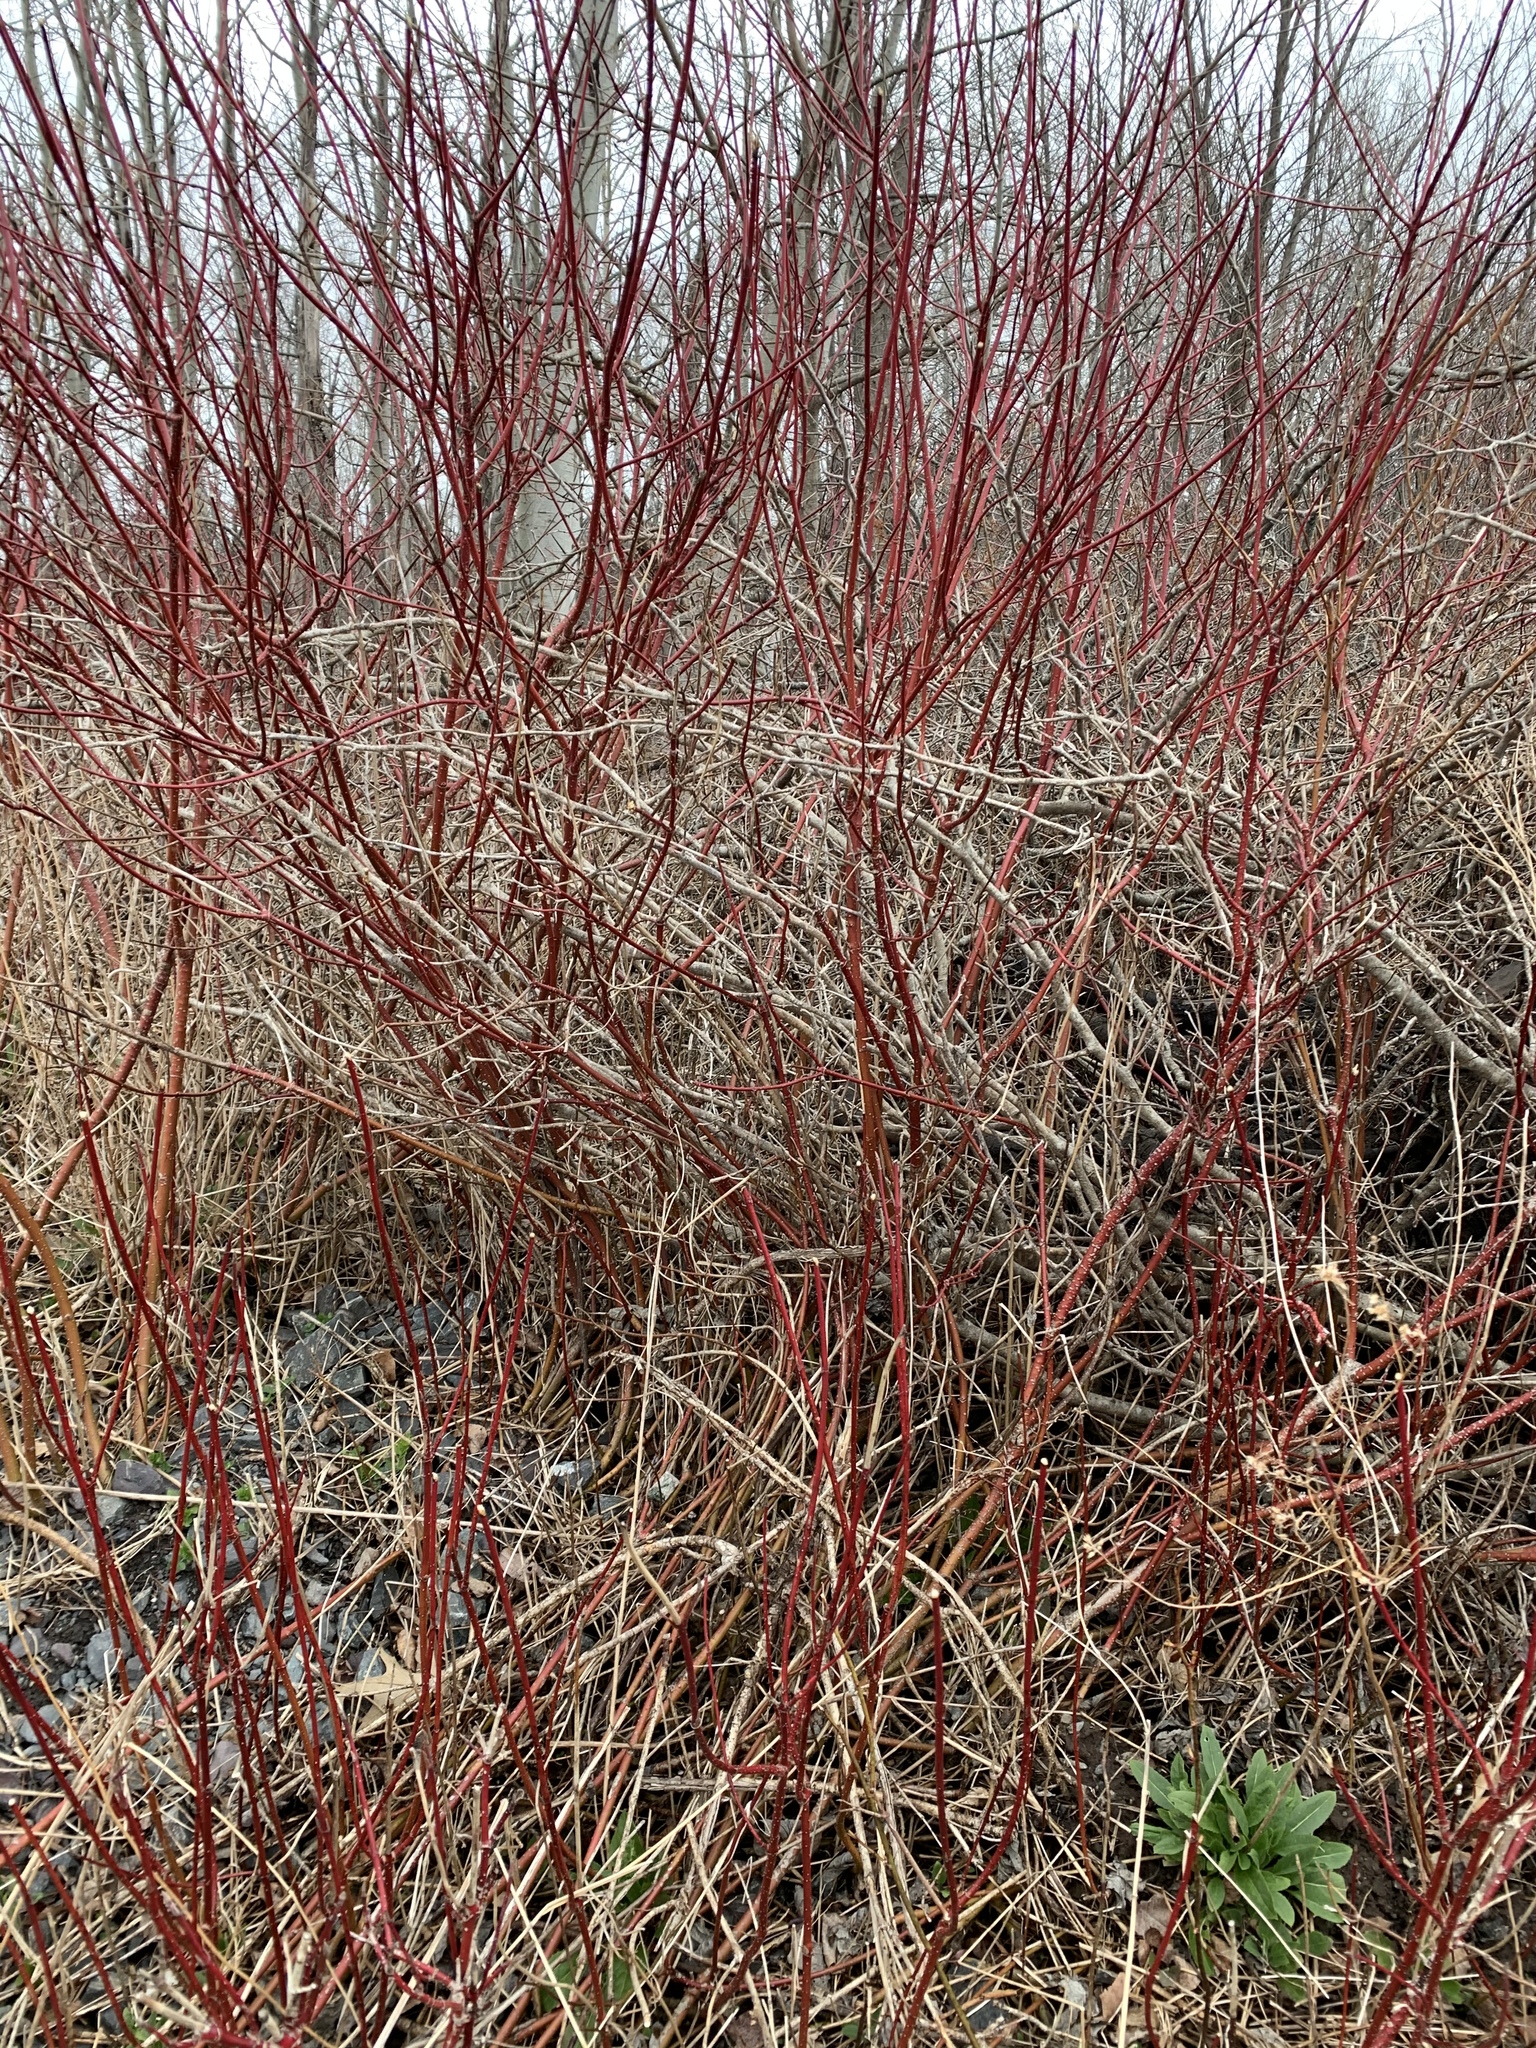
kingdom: Plantae
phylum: Tracheophyta
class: Magnoliopsida
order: Cornales
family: Cornaceae
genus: Cornus
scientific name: Cornus sericea
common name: Red-osier dogwood
